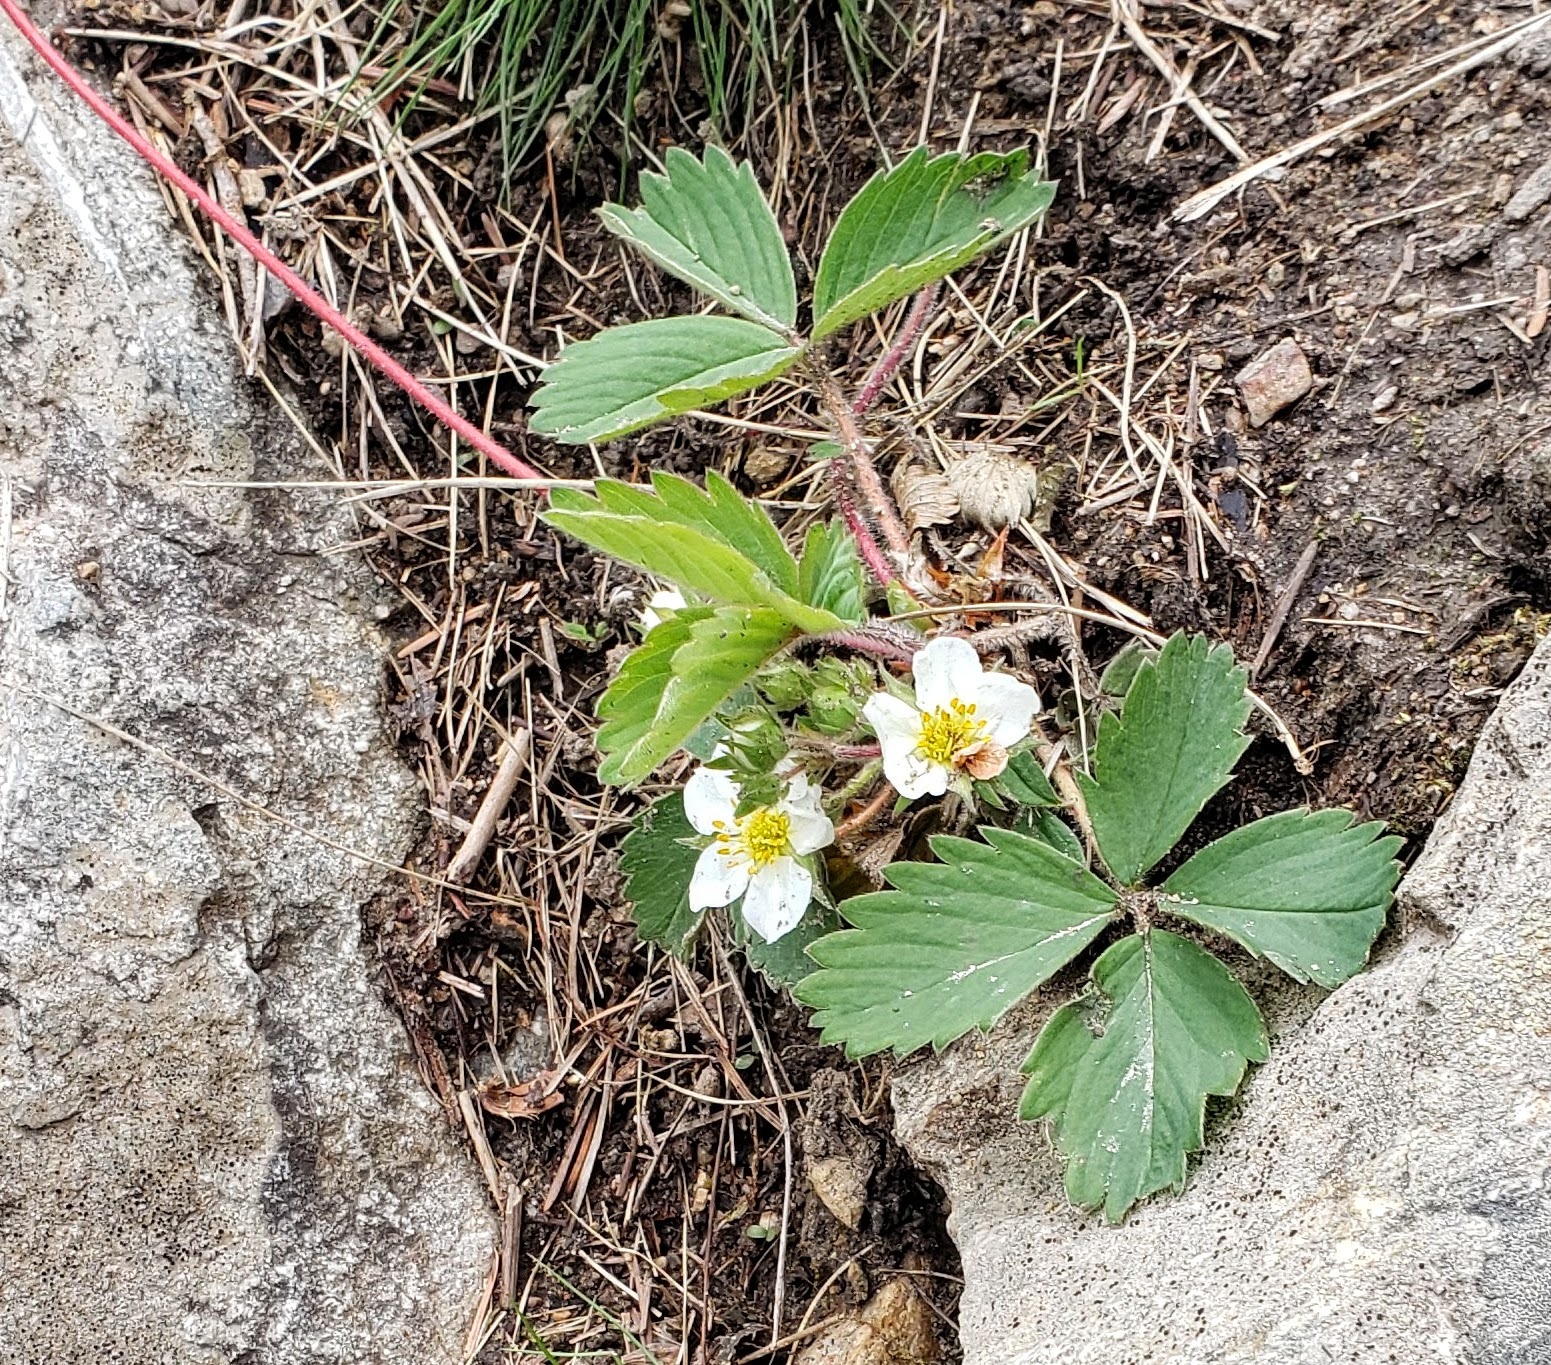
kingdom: Plantae
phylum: Tracheophyta
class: Magnoliopsida
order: Rosales
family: Rosaceae
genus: Fragaria
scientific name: Fragaria virginiana
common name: Thickleaved wild strawberry
